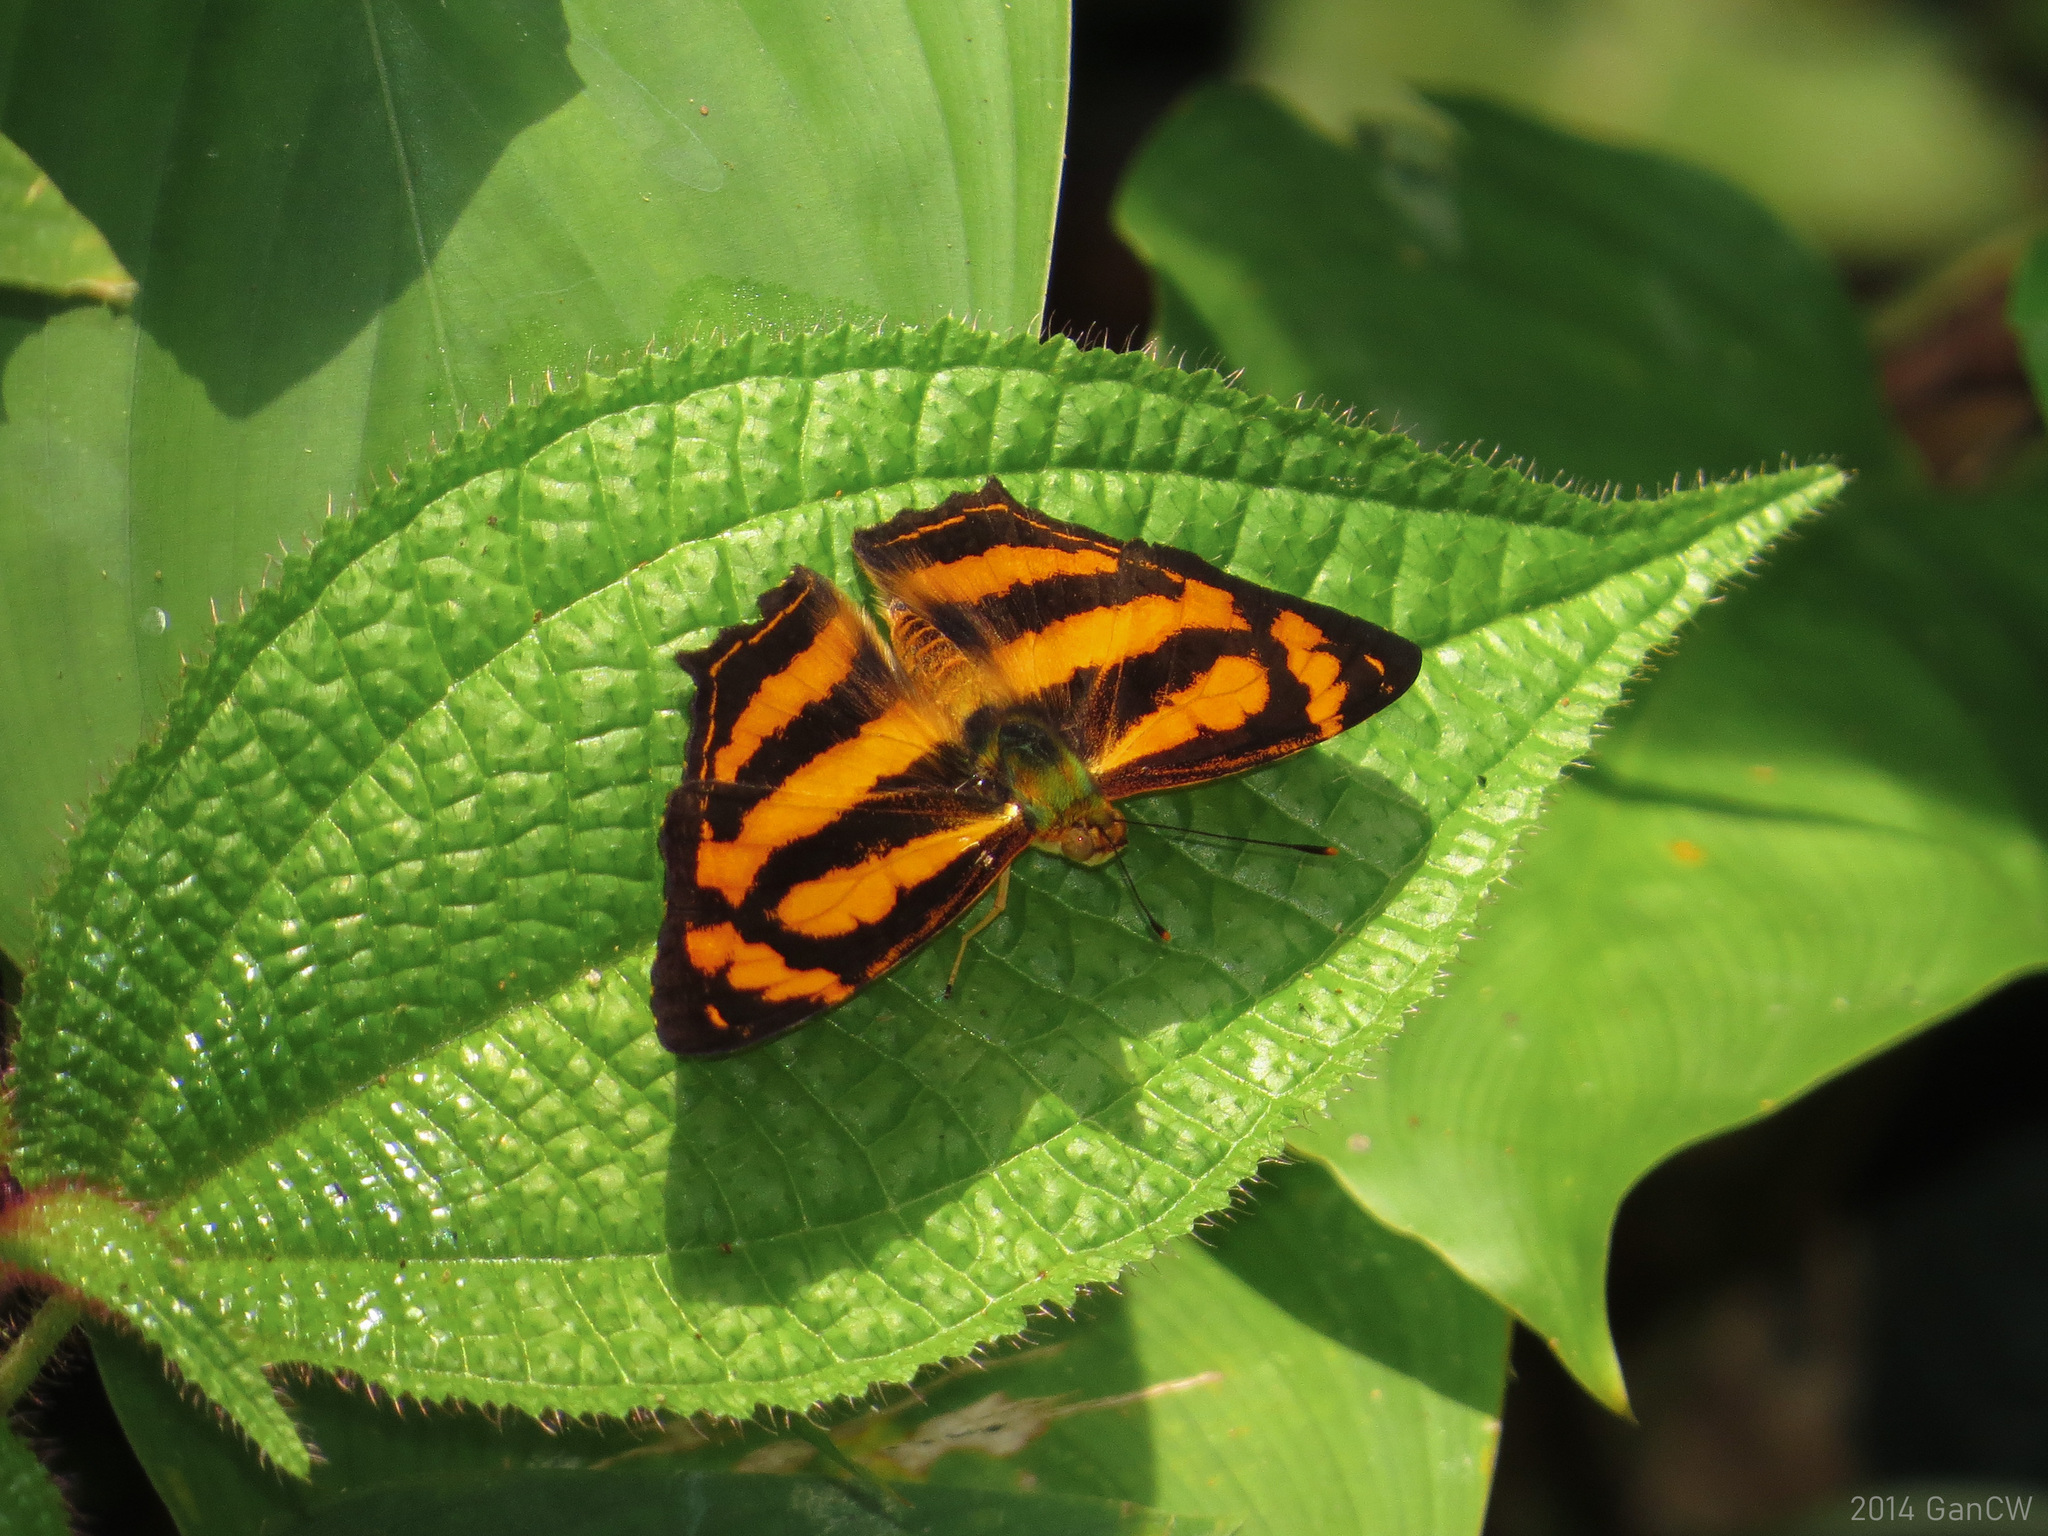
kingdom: Animalia
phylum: Arthropoda
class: Insecta
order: Lepidoptera
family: Nymphalidae
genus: Symbrenthia
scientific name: Symbrenthia hypselis
